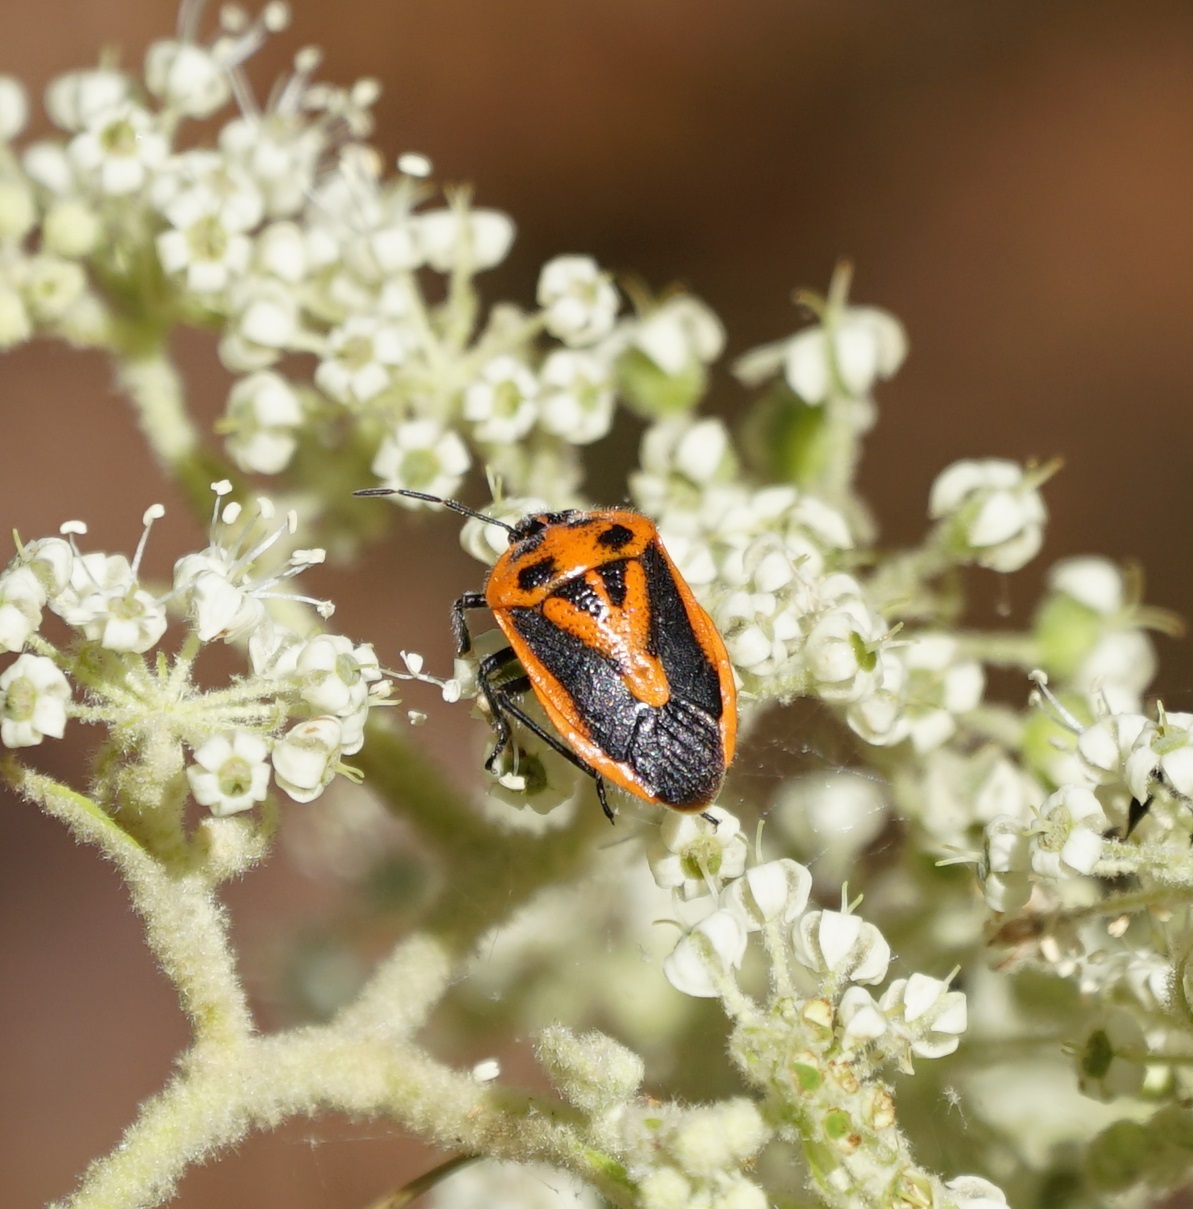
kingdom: Animalia
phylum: Arthropoda
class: Insecta
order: Hemiptera
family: Pentatomidae
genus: Agonoscelis
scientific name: Agonoscelis rutila
